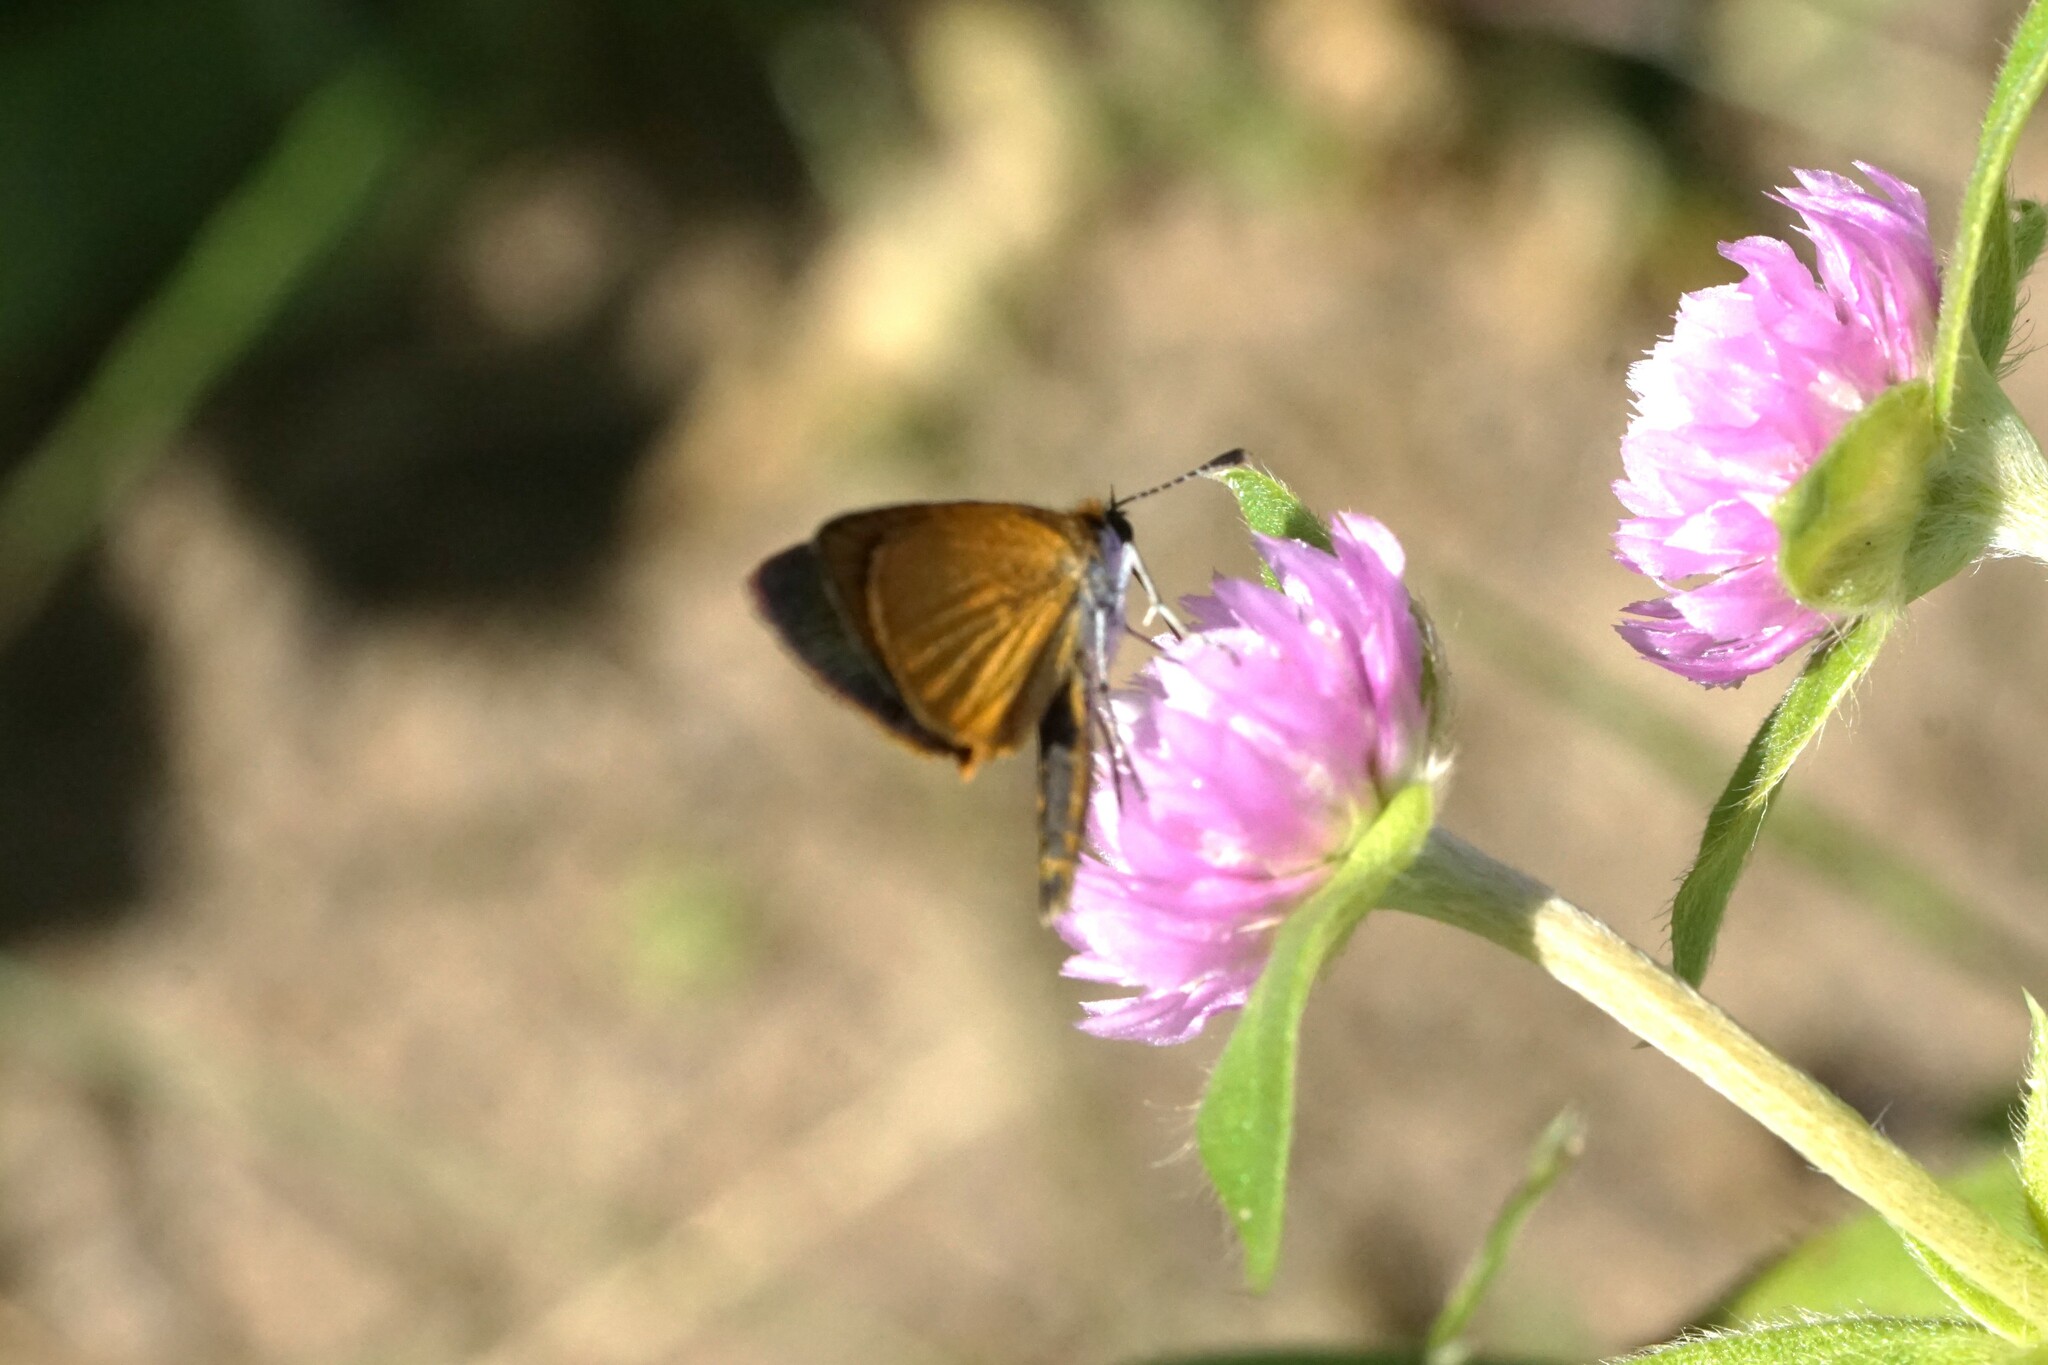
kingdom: Animalia
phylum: Arthropoda
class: Insecta
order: Lepidoptera
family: Hesperiidae
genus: Ancyloxypha
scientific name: Ancyloxypha numitor
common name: Least skipper
